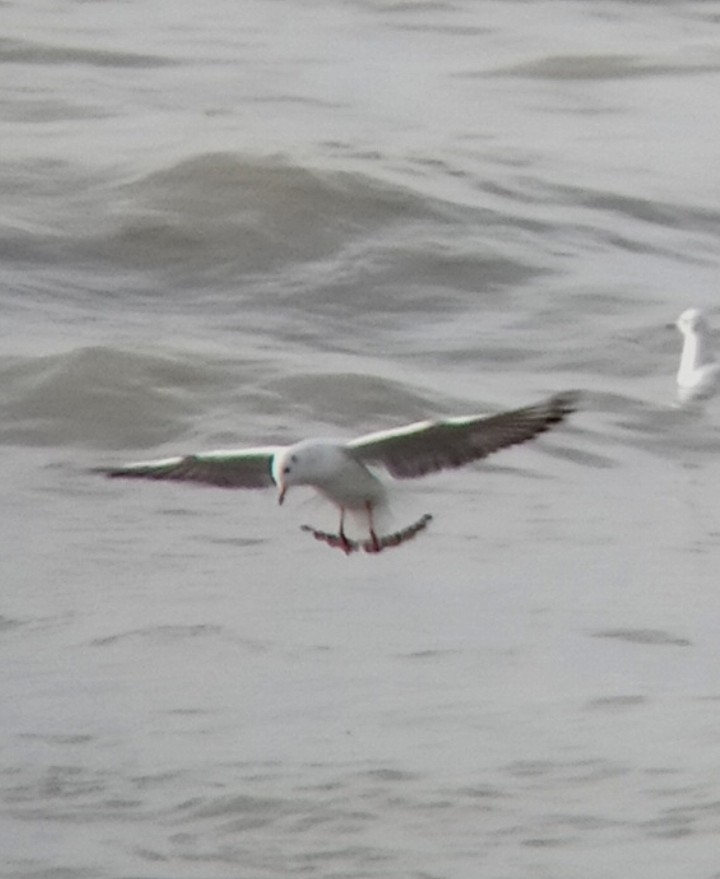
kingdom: Animalia
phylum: Chordata
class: Aves
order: Charadriiformes
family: Laridae
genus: Chroicocephalus
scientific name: Chroicocephalus ridibundus
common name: Black-headed gull
